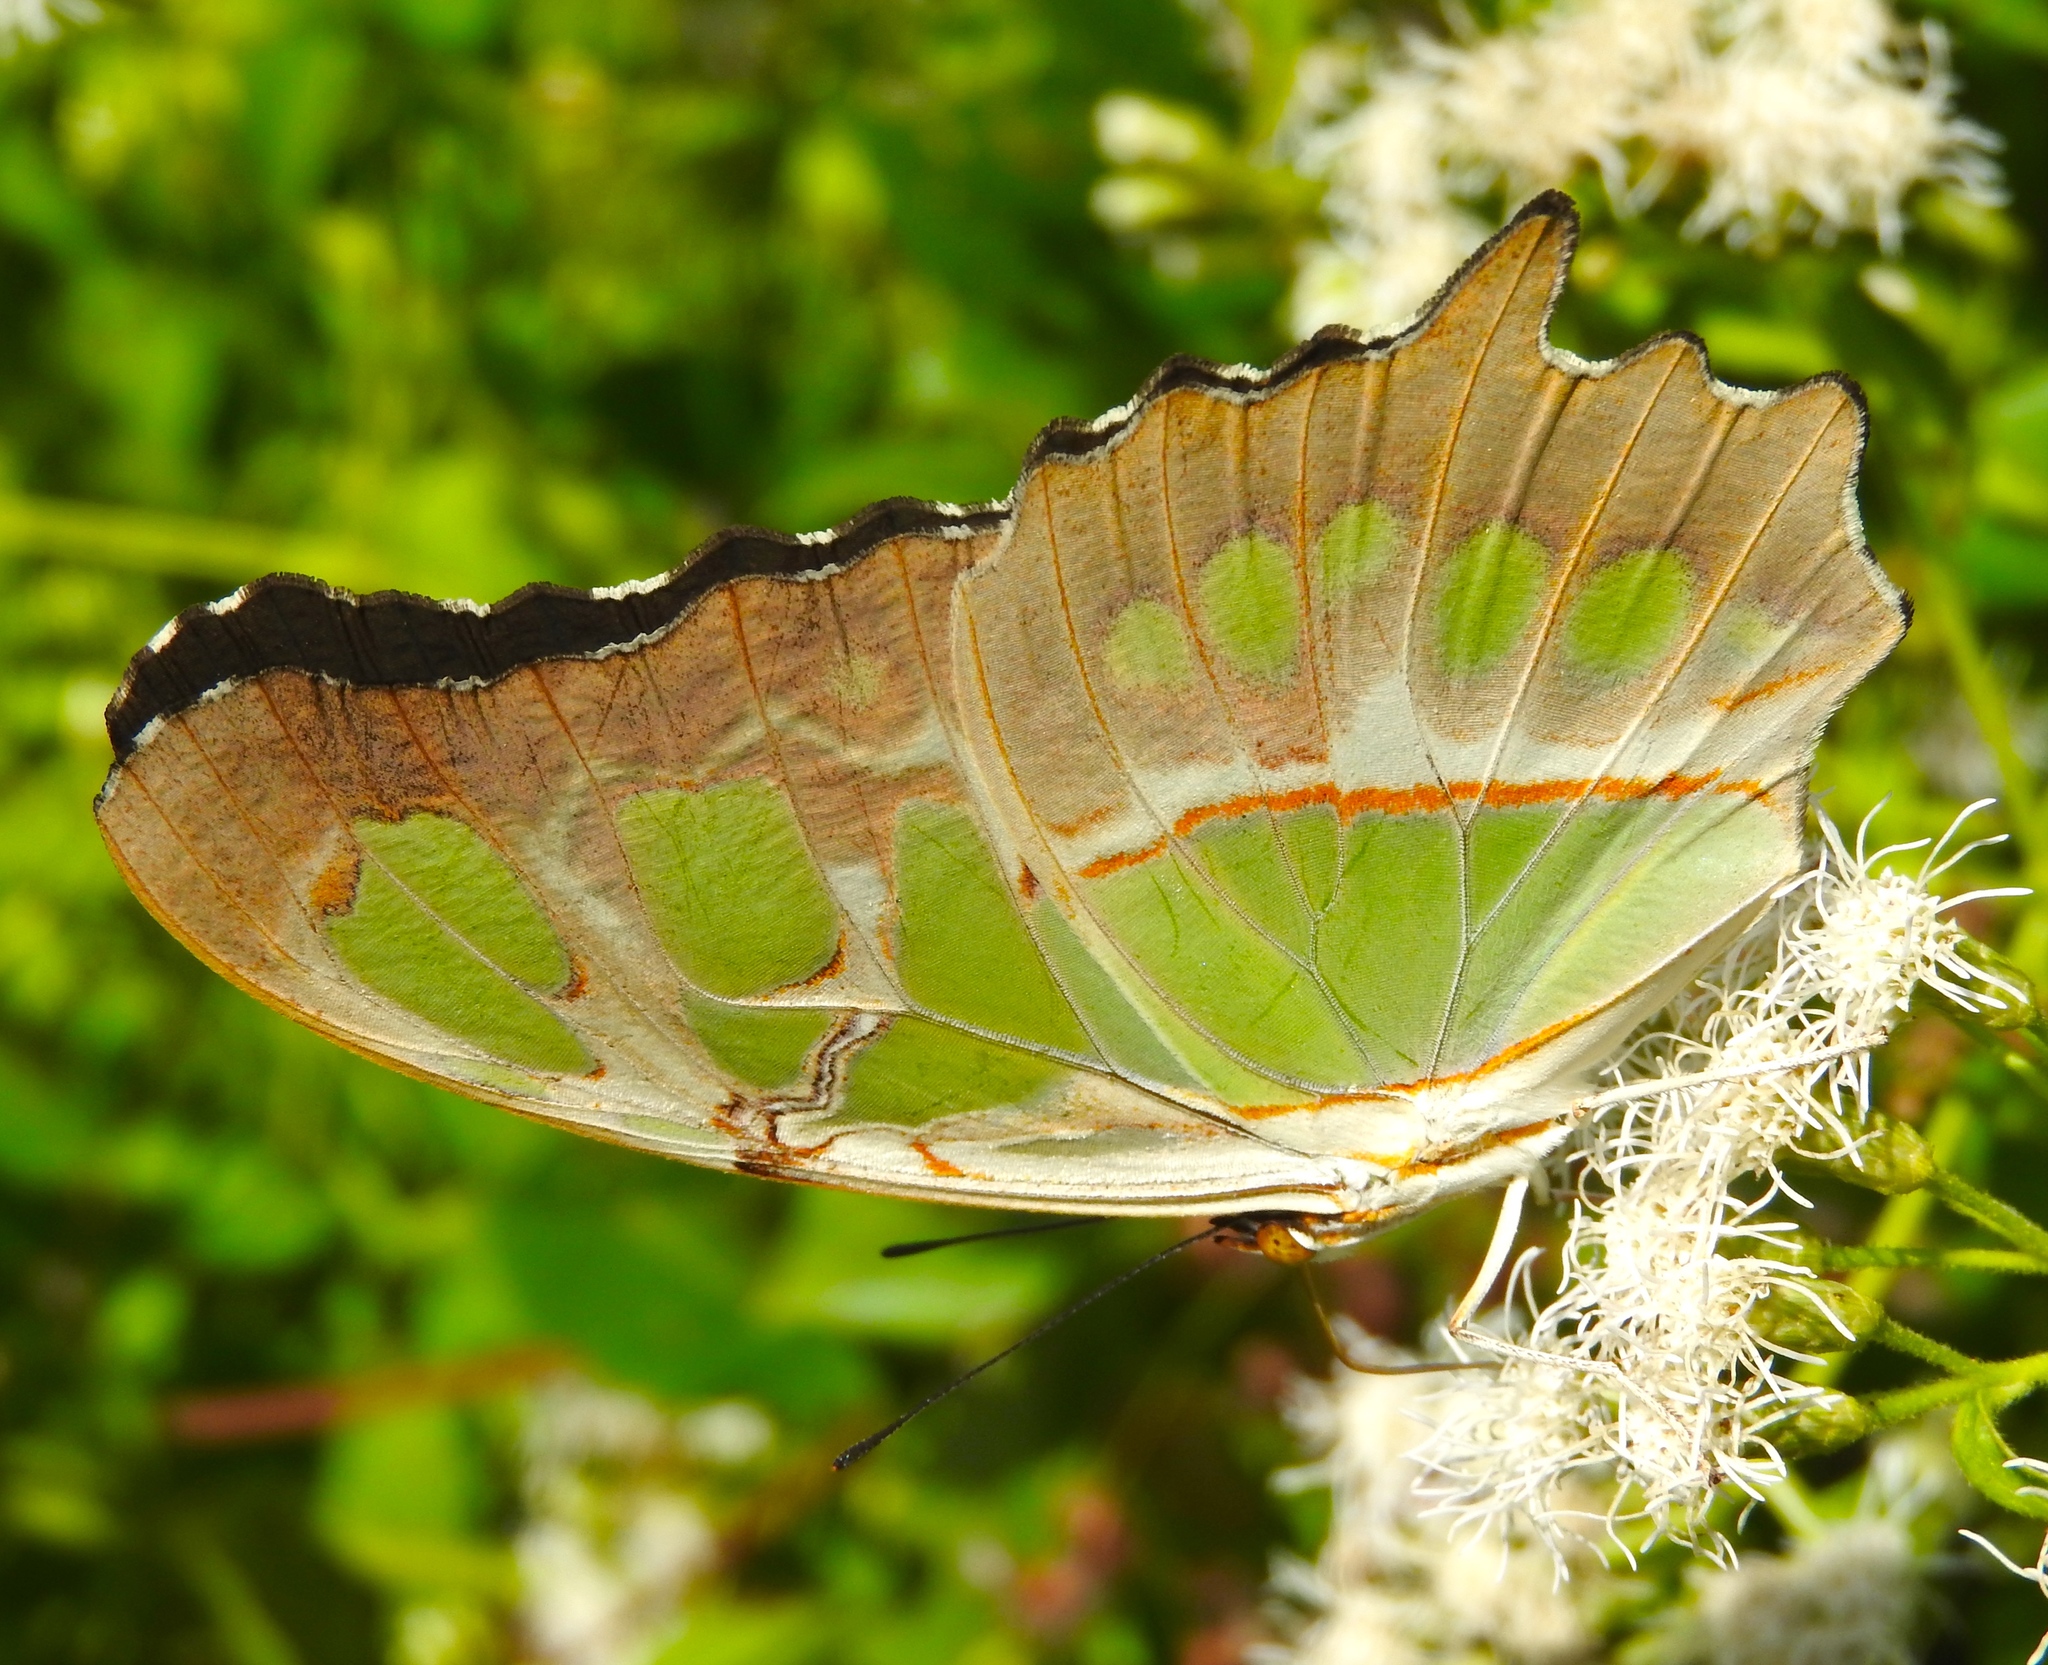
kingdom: Animalia
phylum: Arthropoda
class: Insecta
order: Lepidoptera
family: Nymphalidae
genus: Siproeta
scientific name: Siproeta stelenes
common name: Malachite
